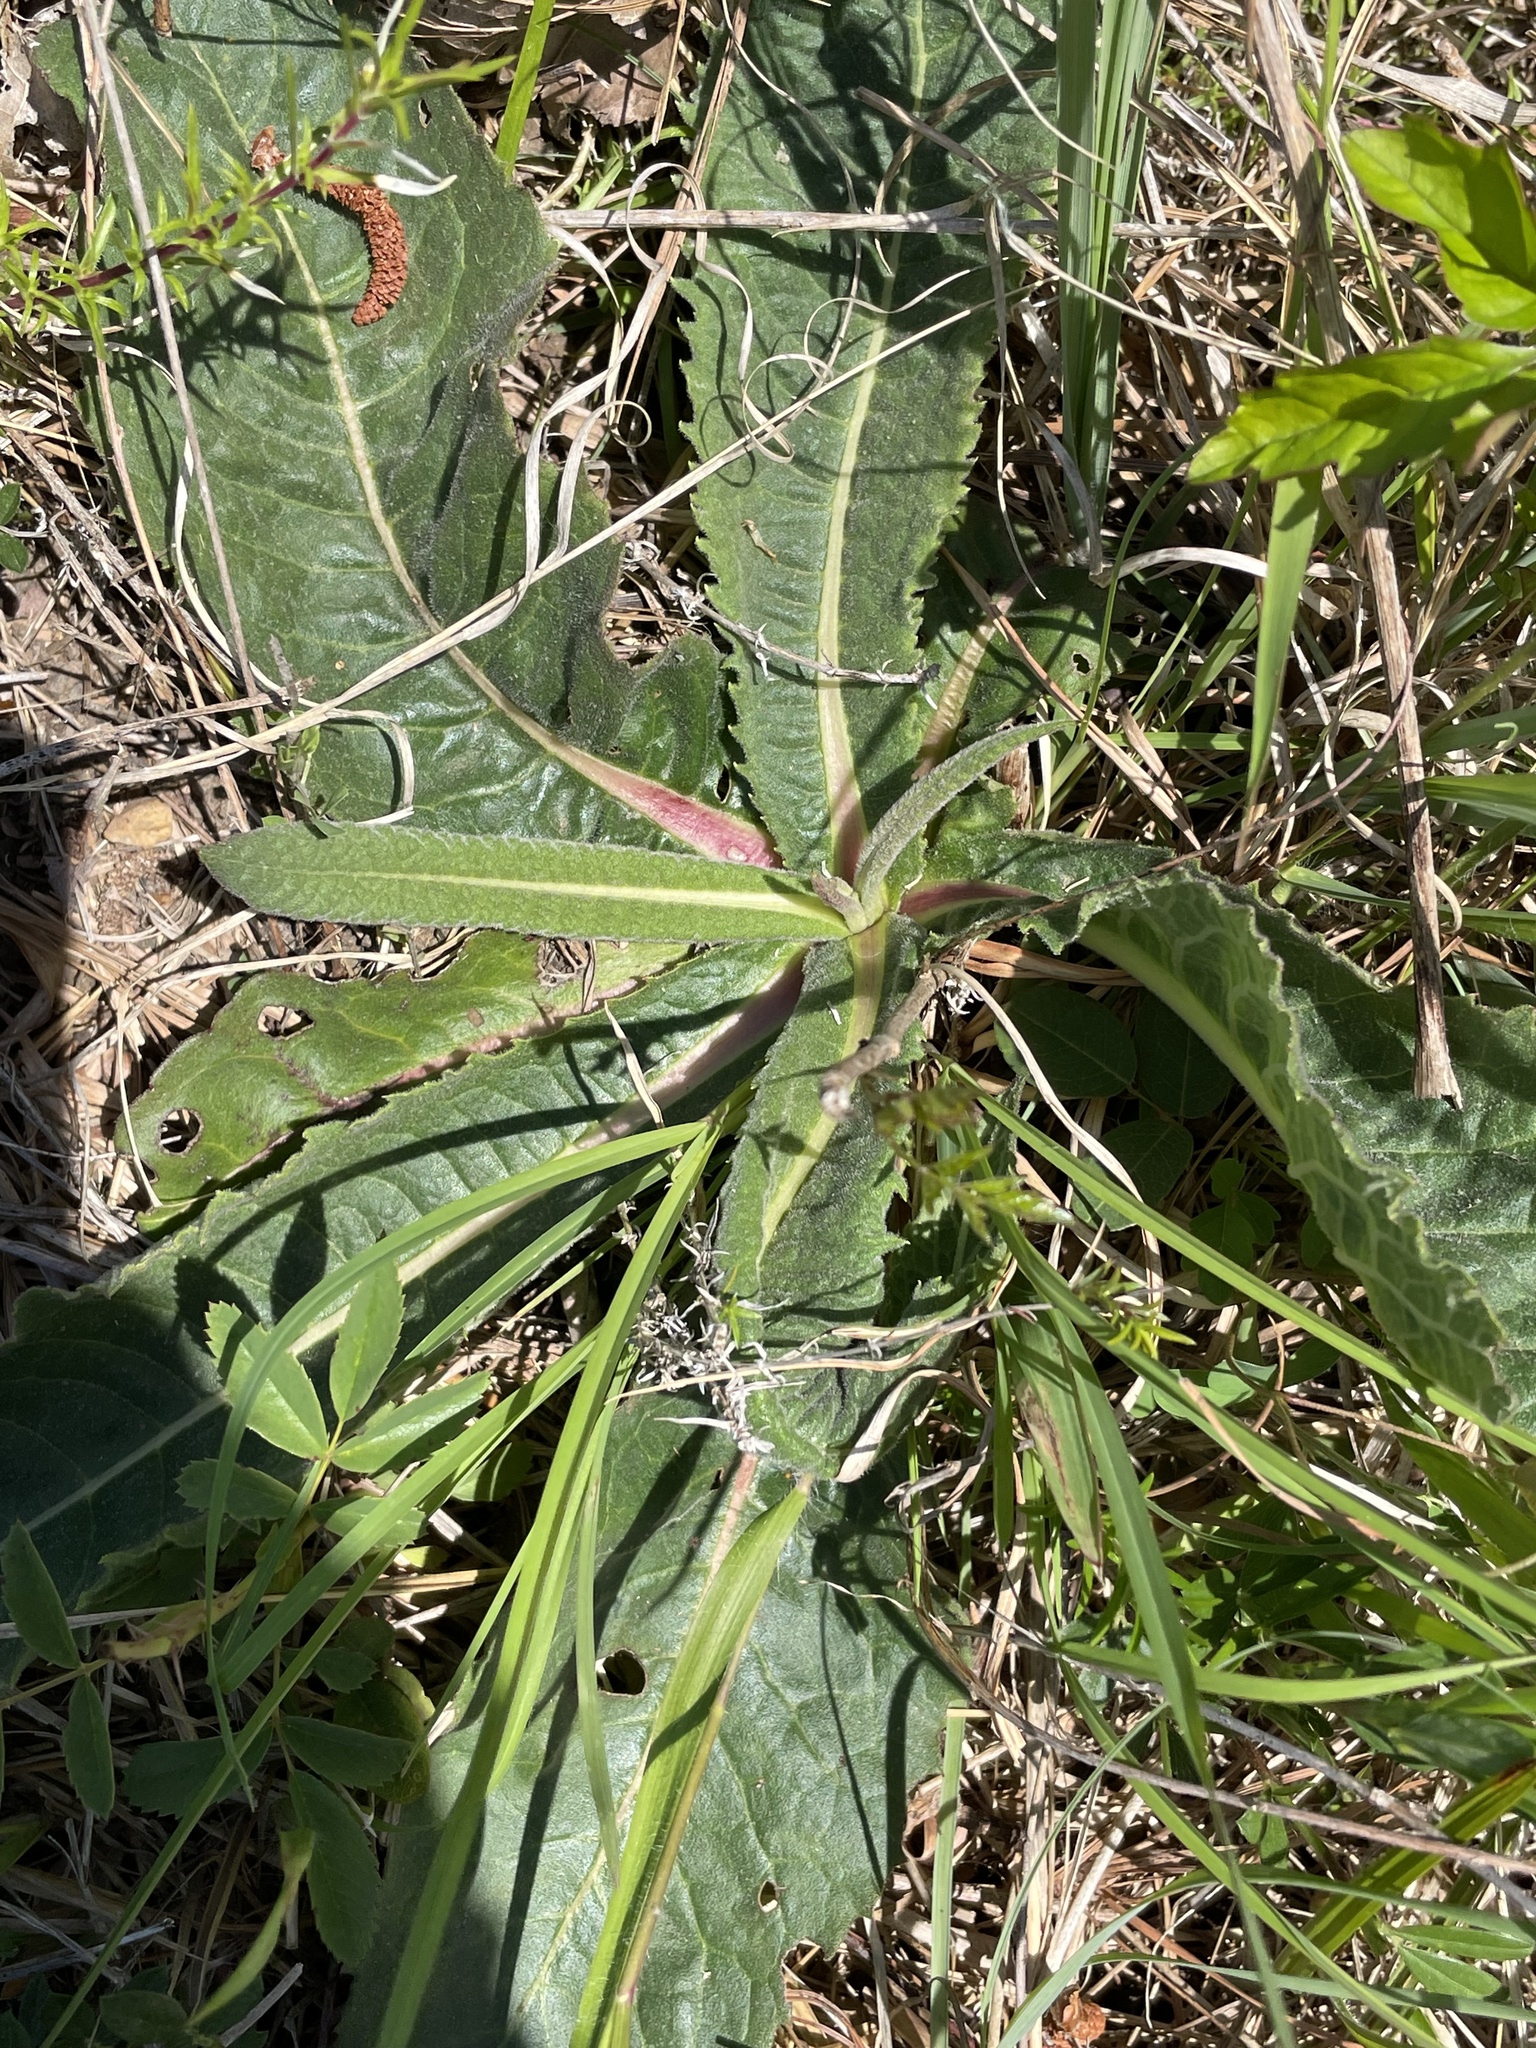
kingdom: Plantae
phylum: Tracheophyta
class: Magnoliopsida
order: Asterales
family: Asteraceae
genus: Vernonia
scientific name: Vernonia acaulis
